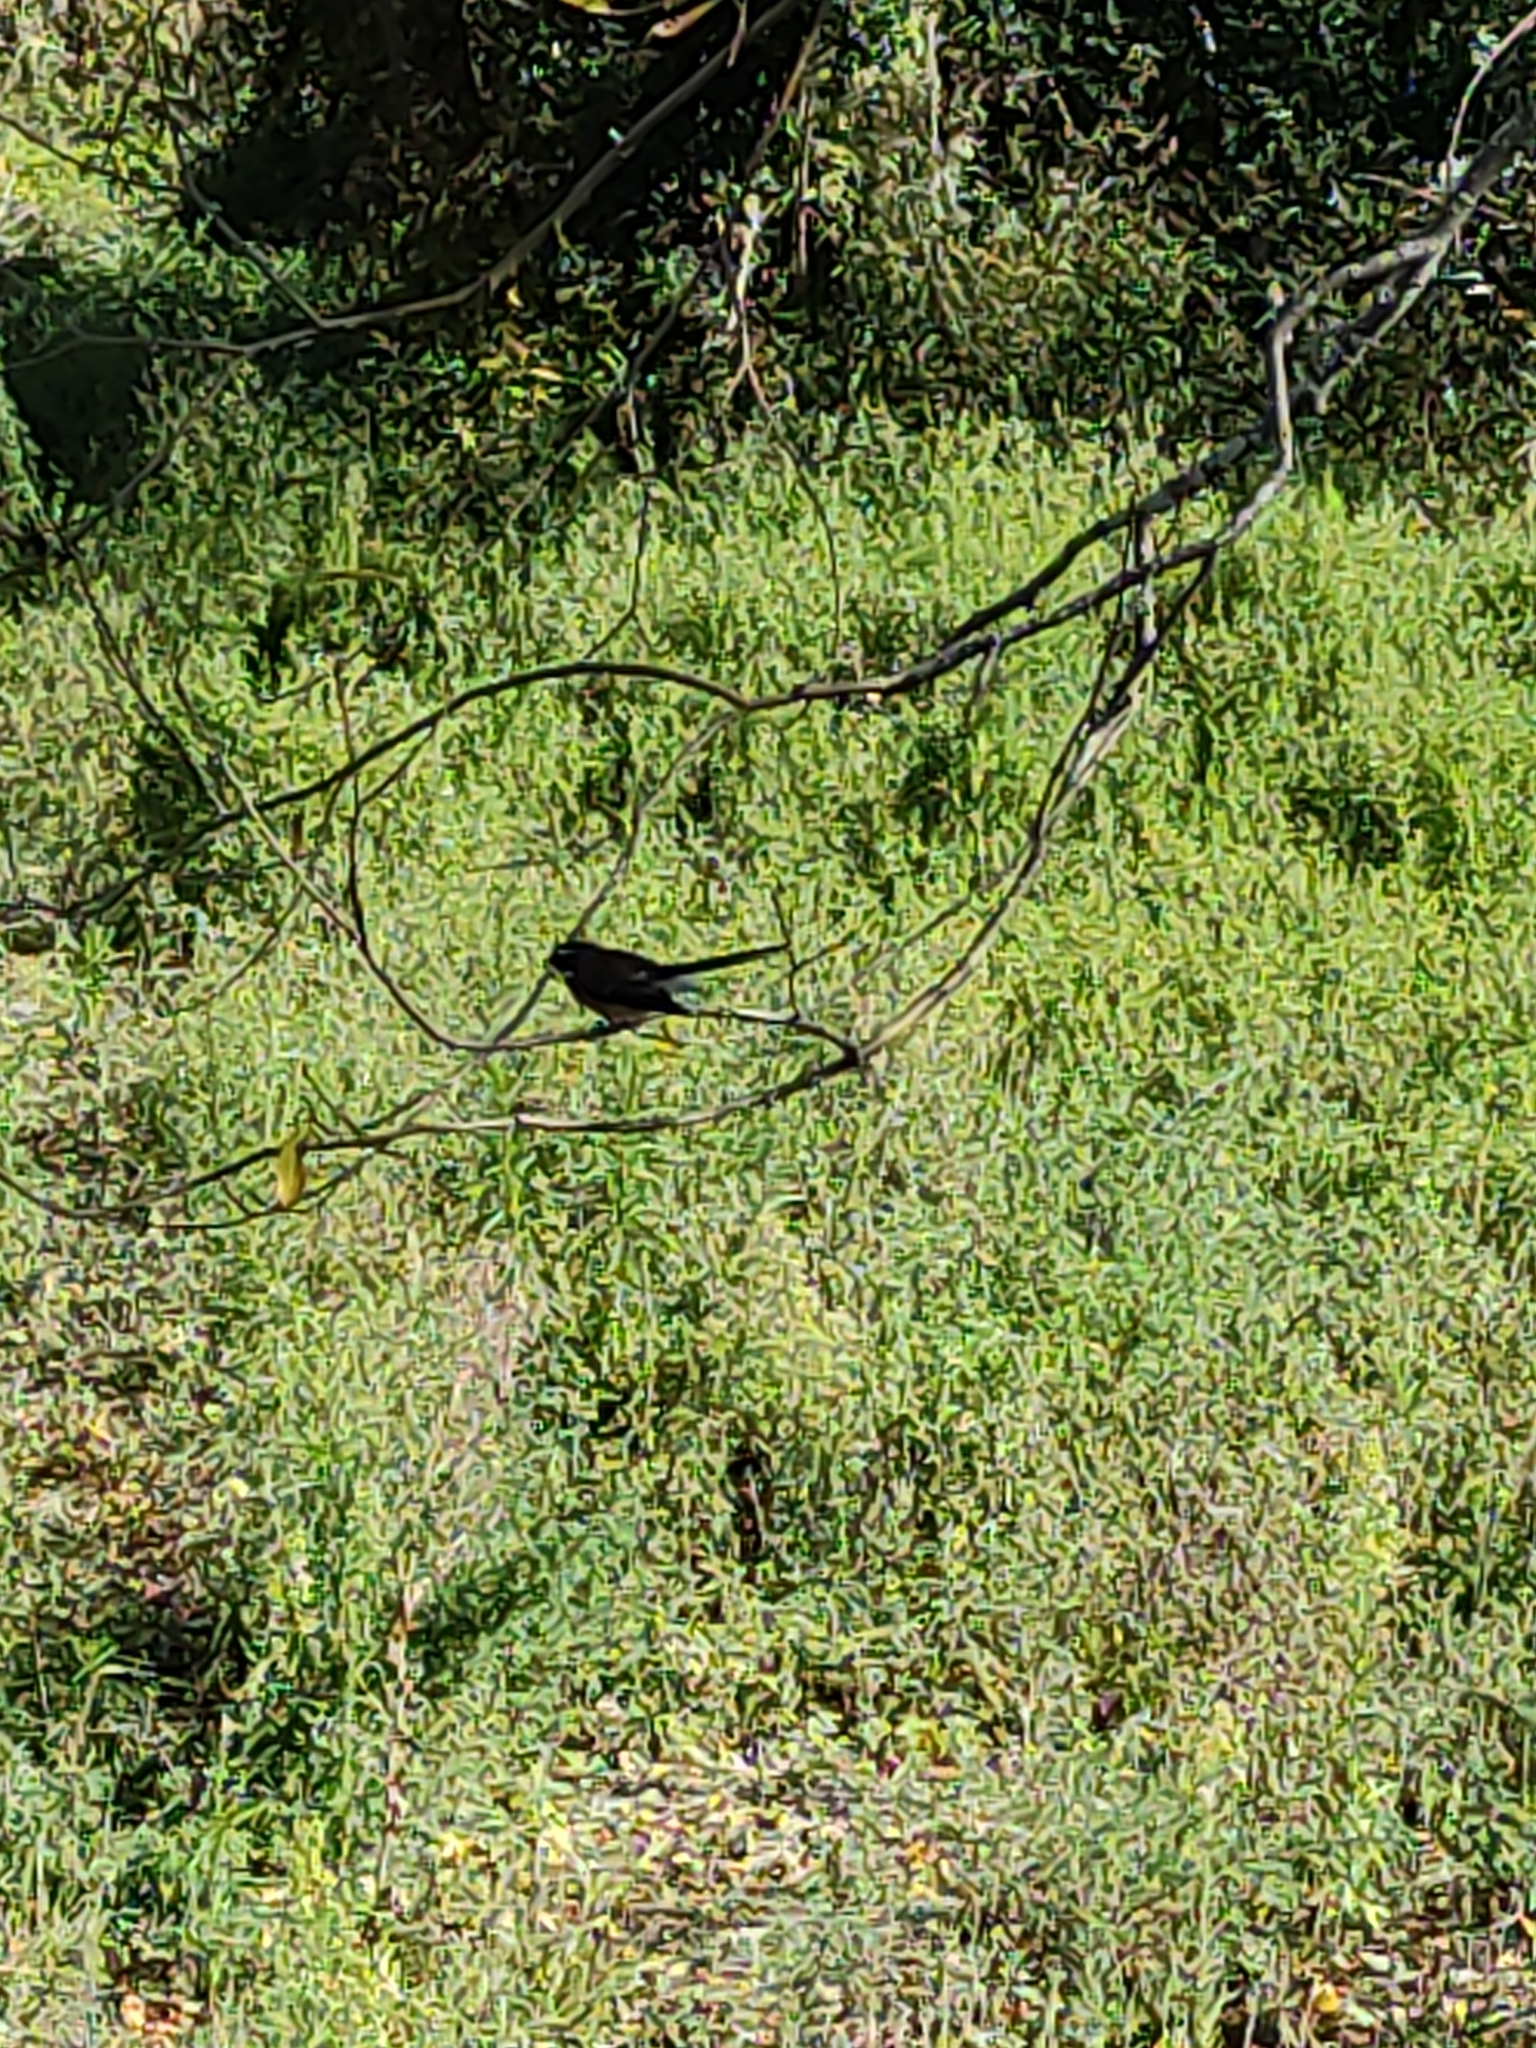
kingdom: Animalia
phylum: Chordata
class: Aves
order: Passeriformes
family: Rhipiduridae
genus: Rhipidura
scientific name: Rhipidura fuliginosa
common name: New zealand fantail
